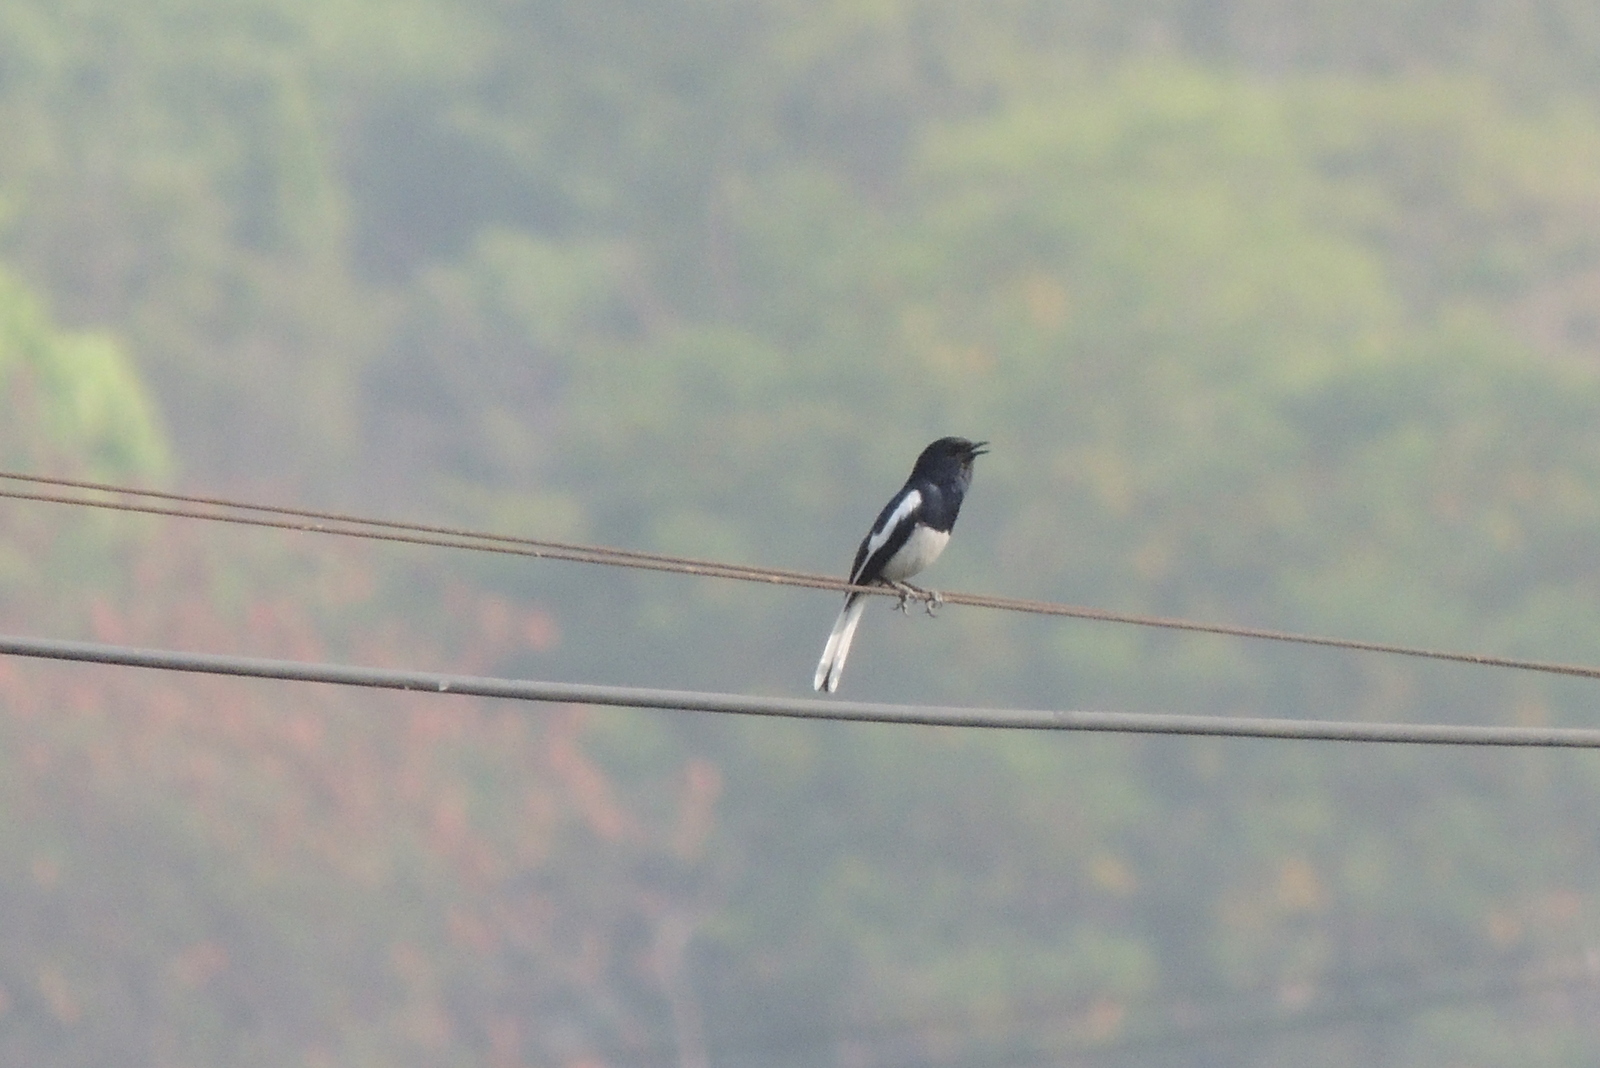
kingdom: Animalia
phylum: Chordata
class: Aves
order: Passeriformes
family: Muscicapidae
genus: Copsychus
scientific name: Copsychus saularis
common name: Oriental magpie-robin
